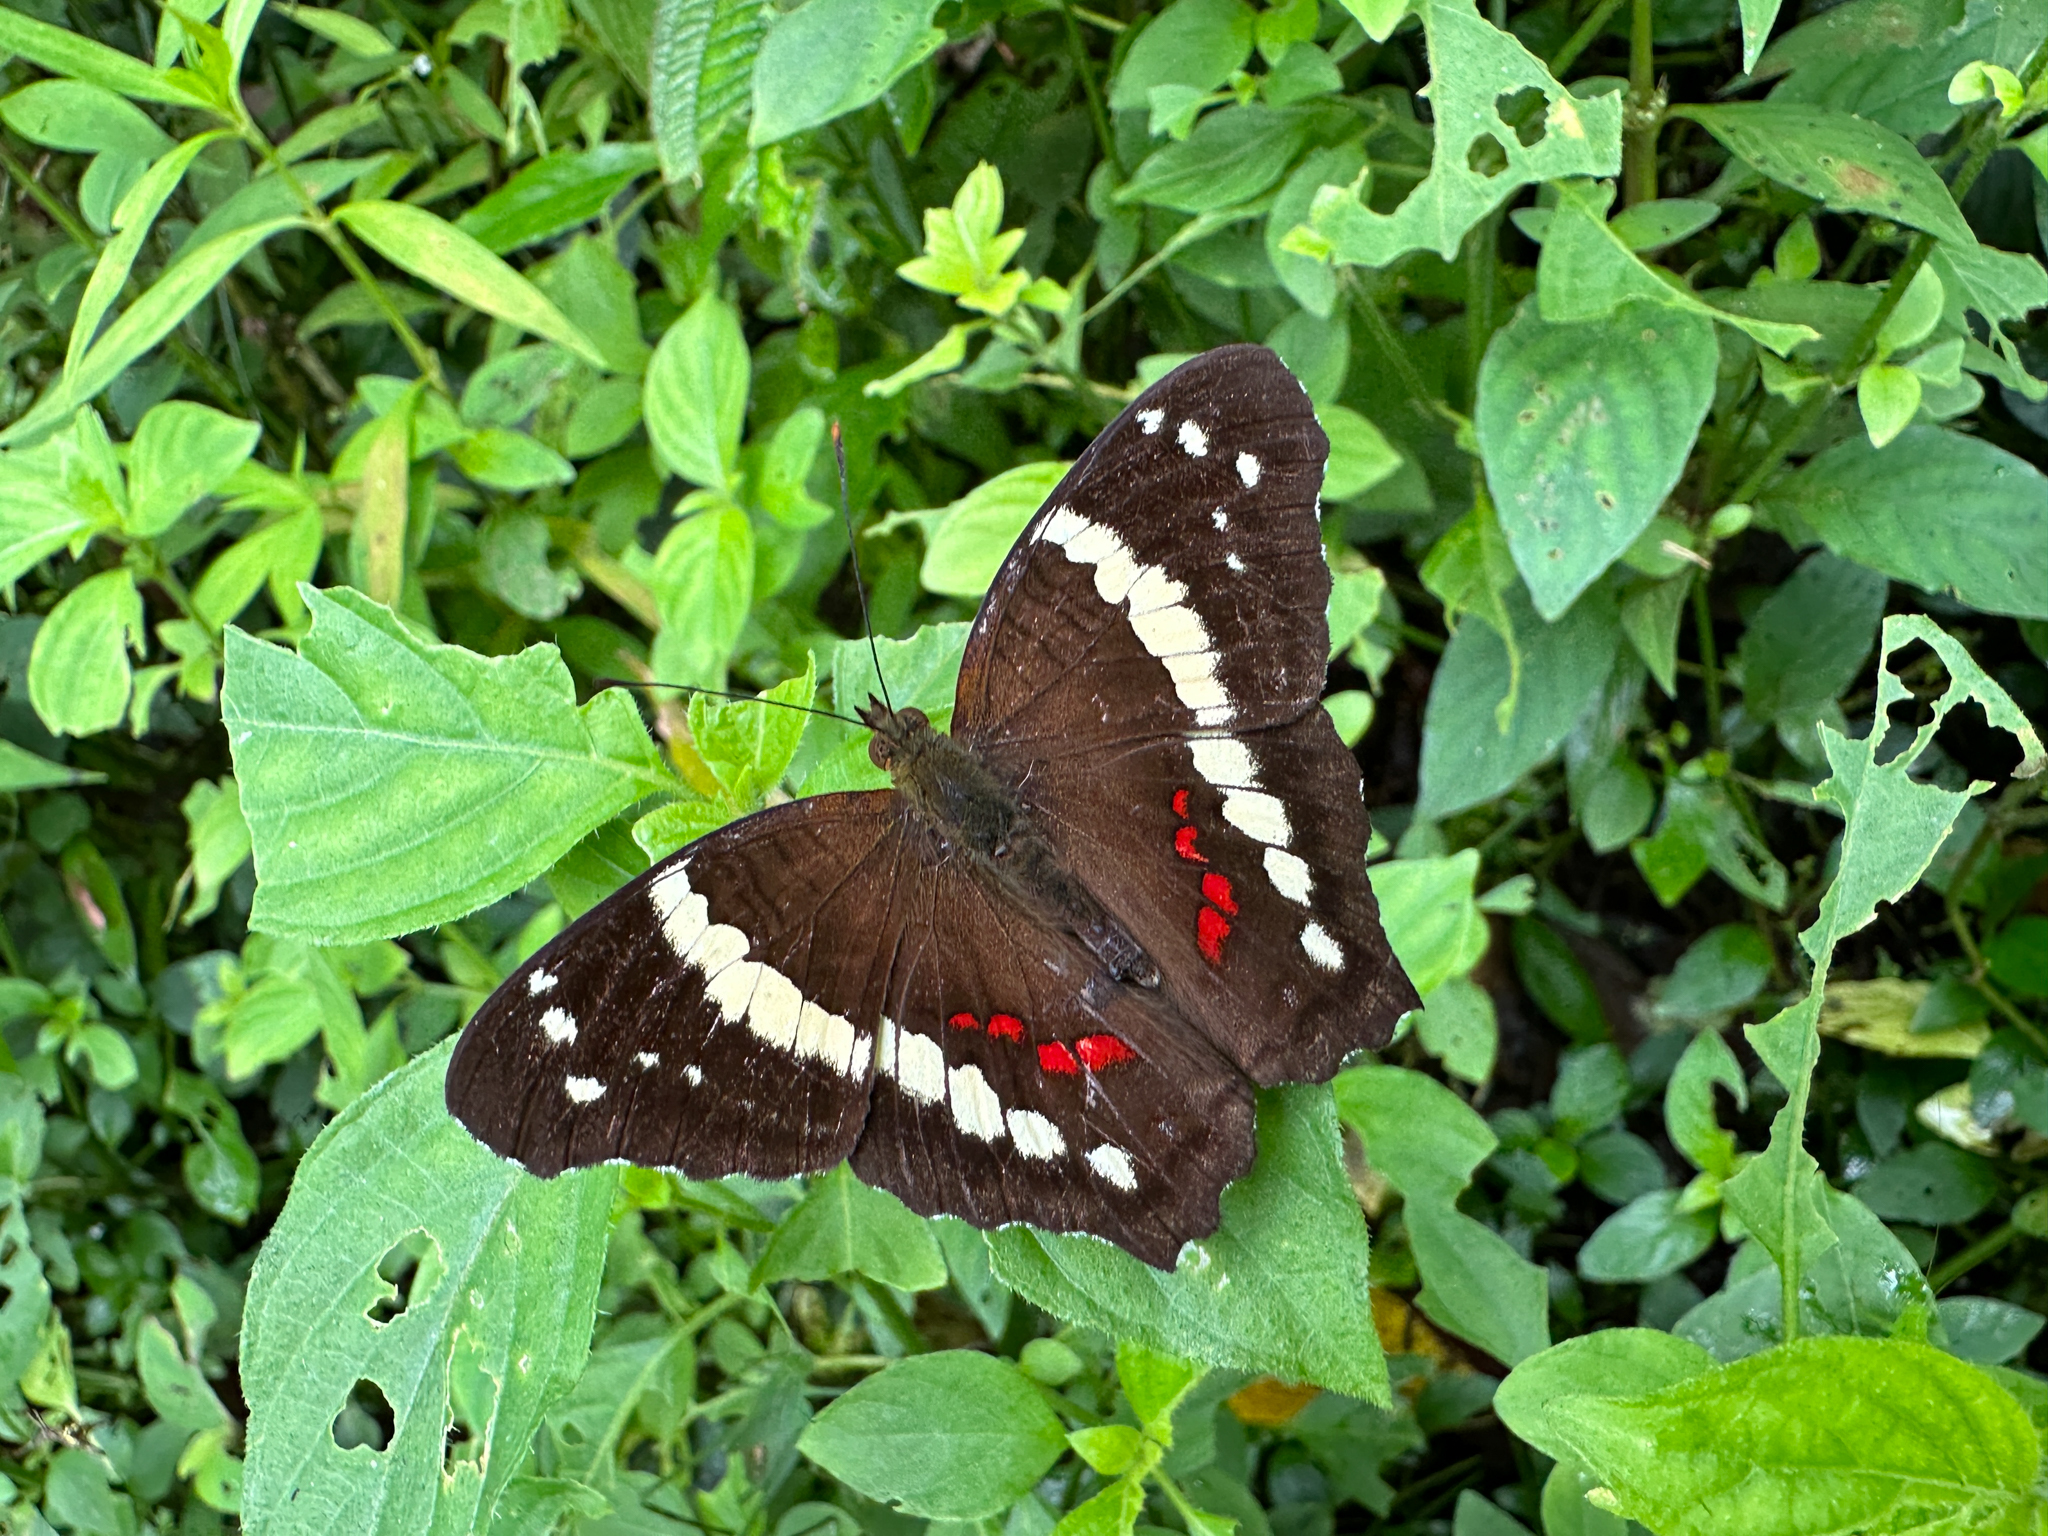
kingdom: Animalia
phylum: Arthropoda
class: Insecta
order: Lepidoptera
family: Nymphalidae
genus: Anartia
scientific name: Anartia fatima
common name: Banded peacock
